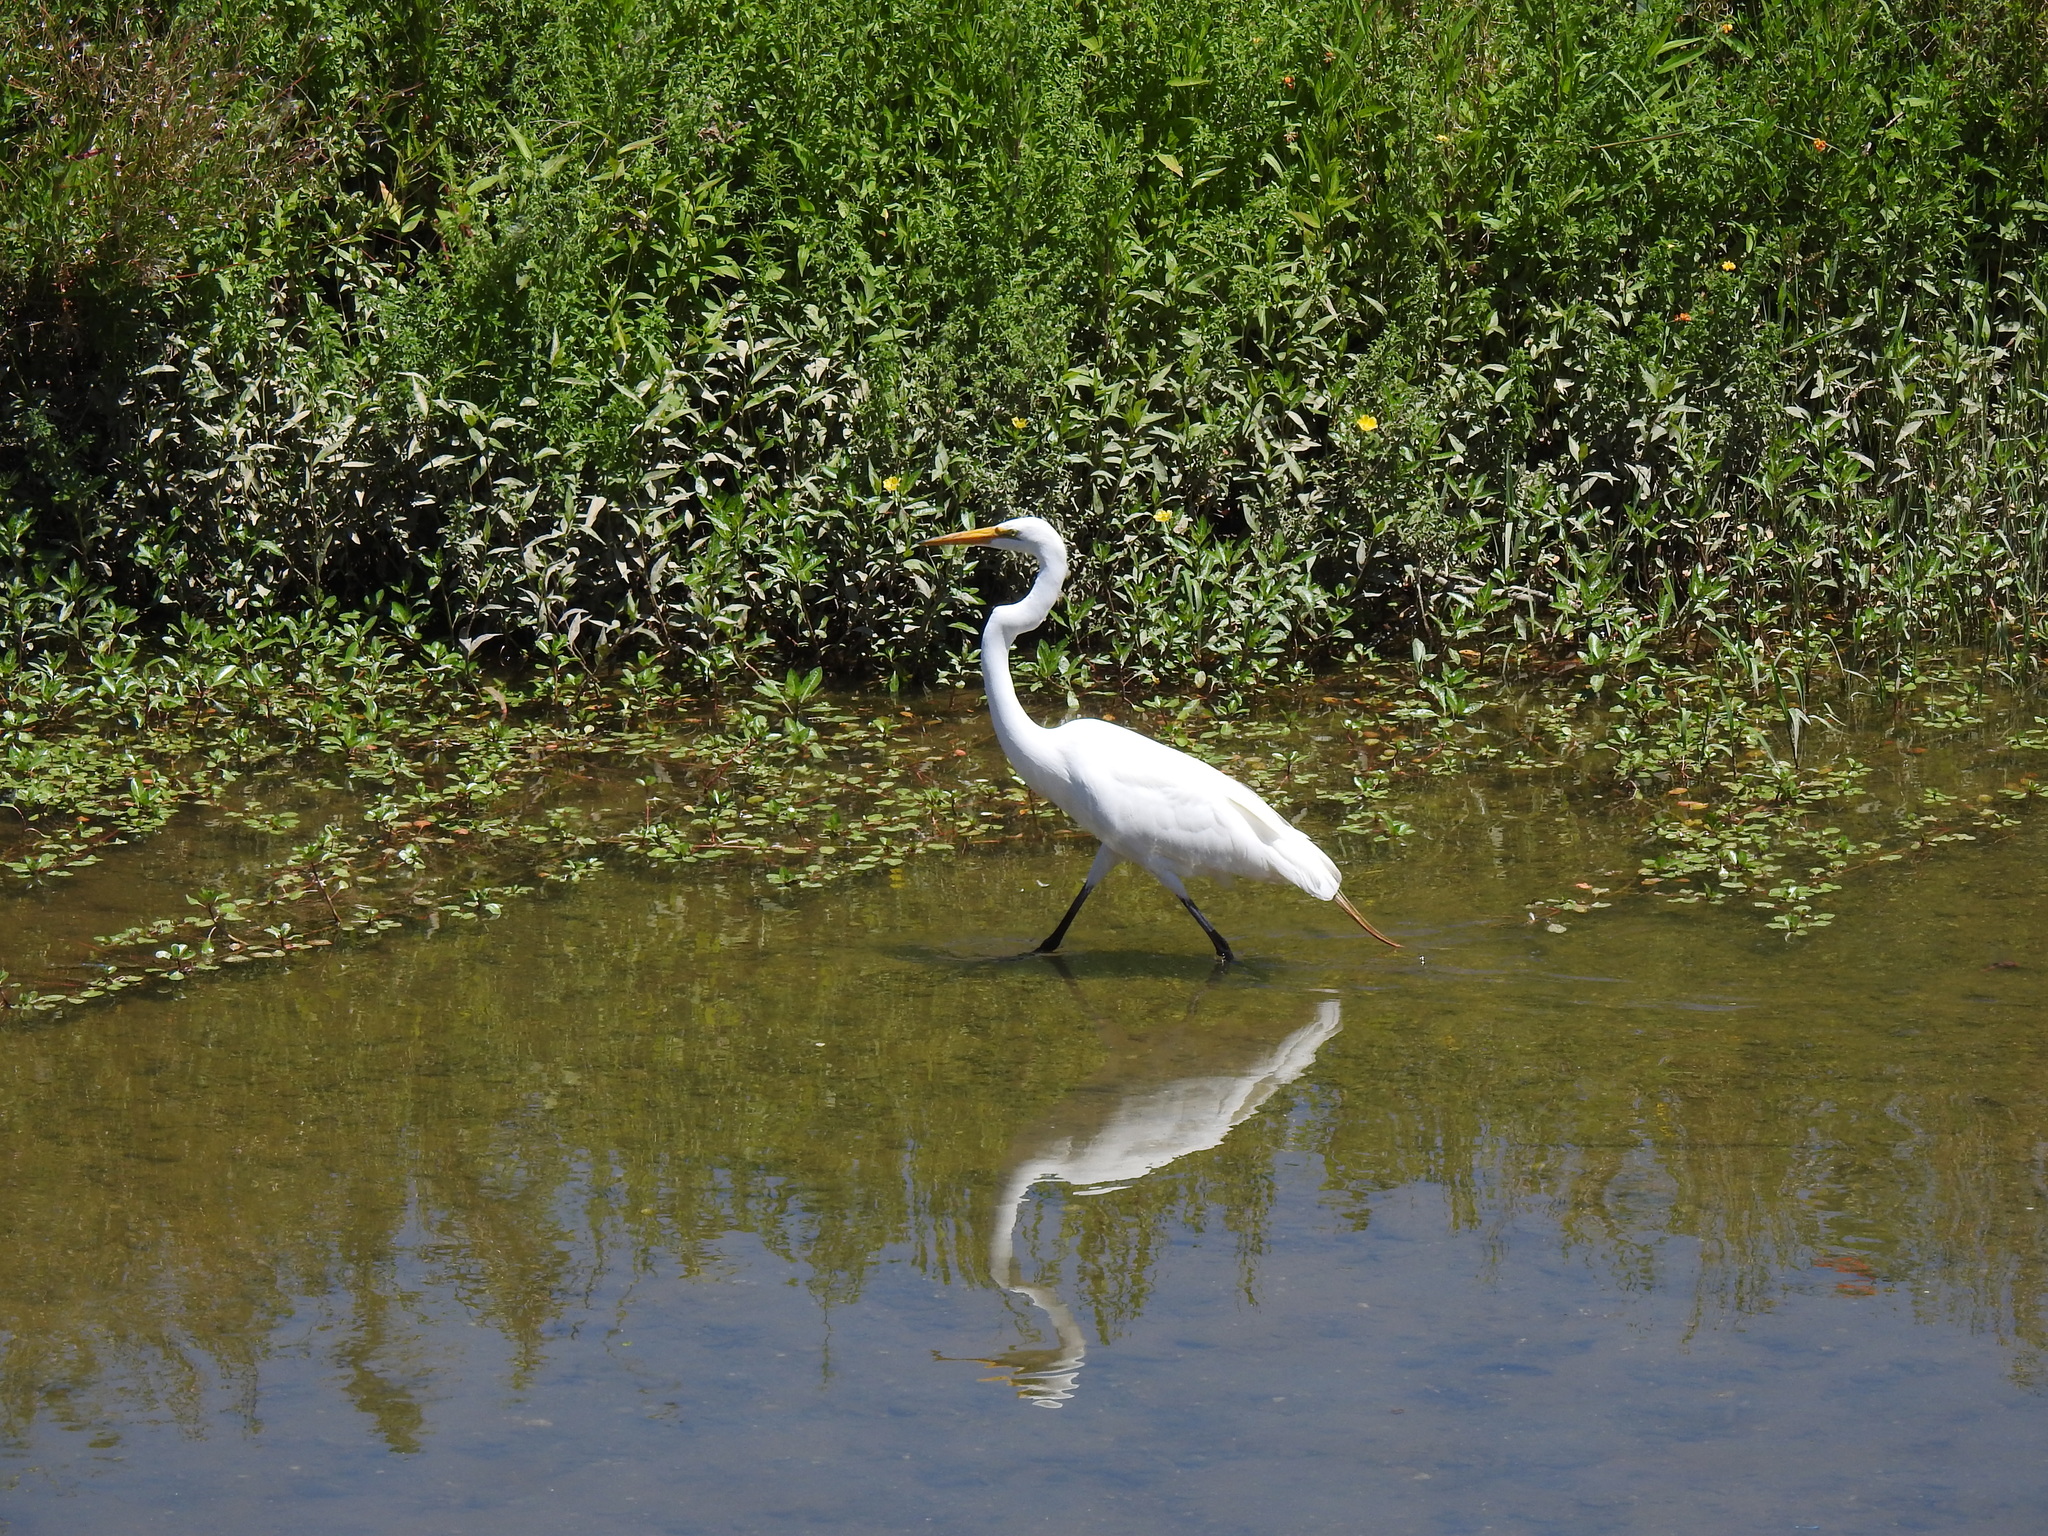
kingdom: Animalia
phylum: Chordata
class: Aves
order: Pelecaniformes
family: Ardeidae
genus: Ardea
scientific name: Ardea alba
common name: Great egret
